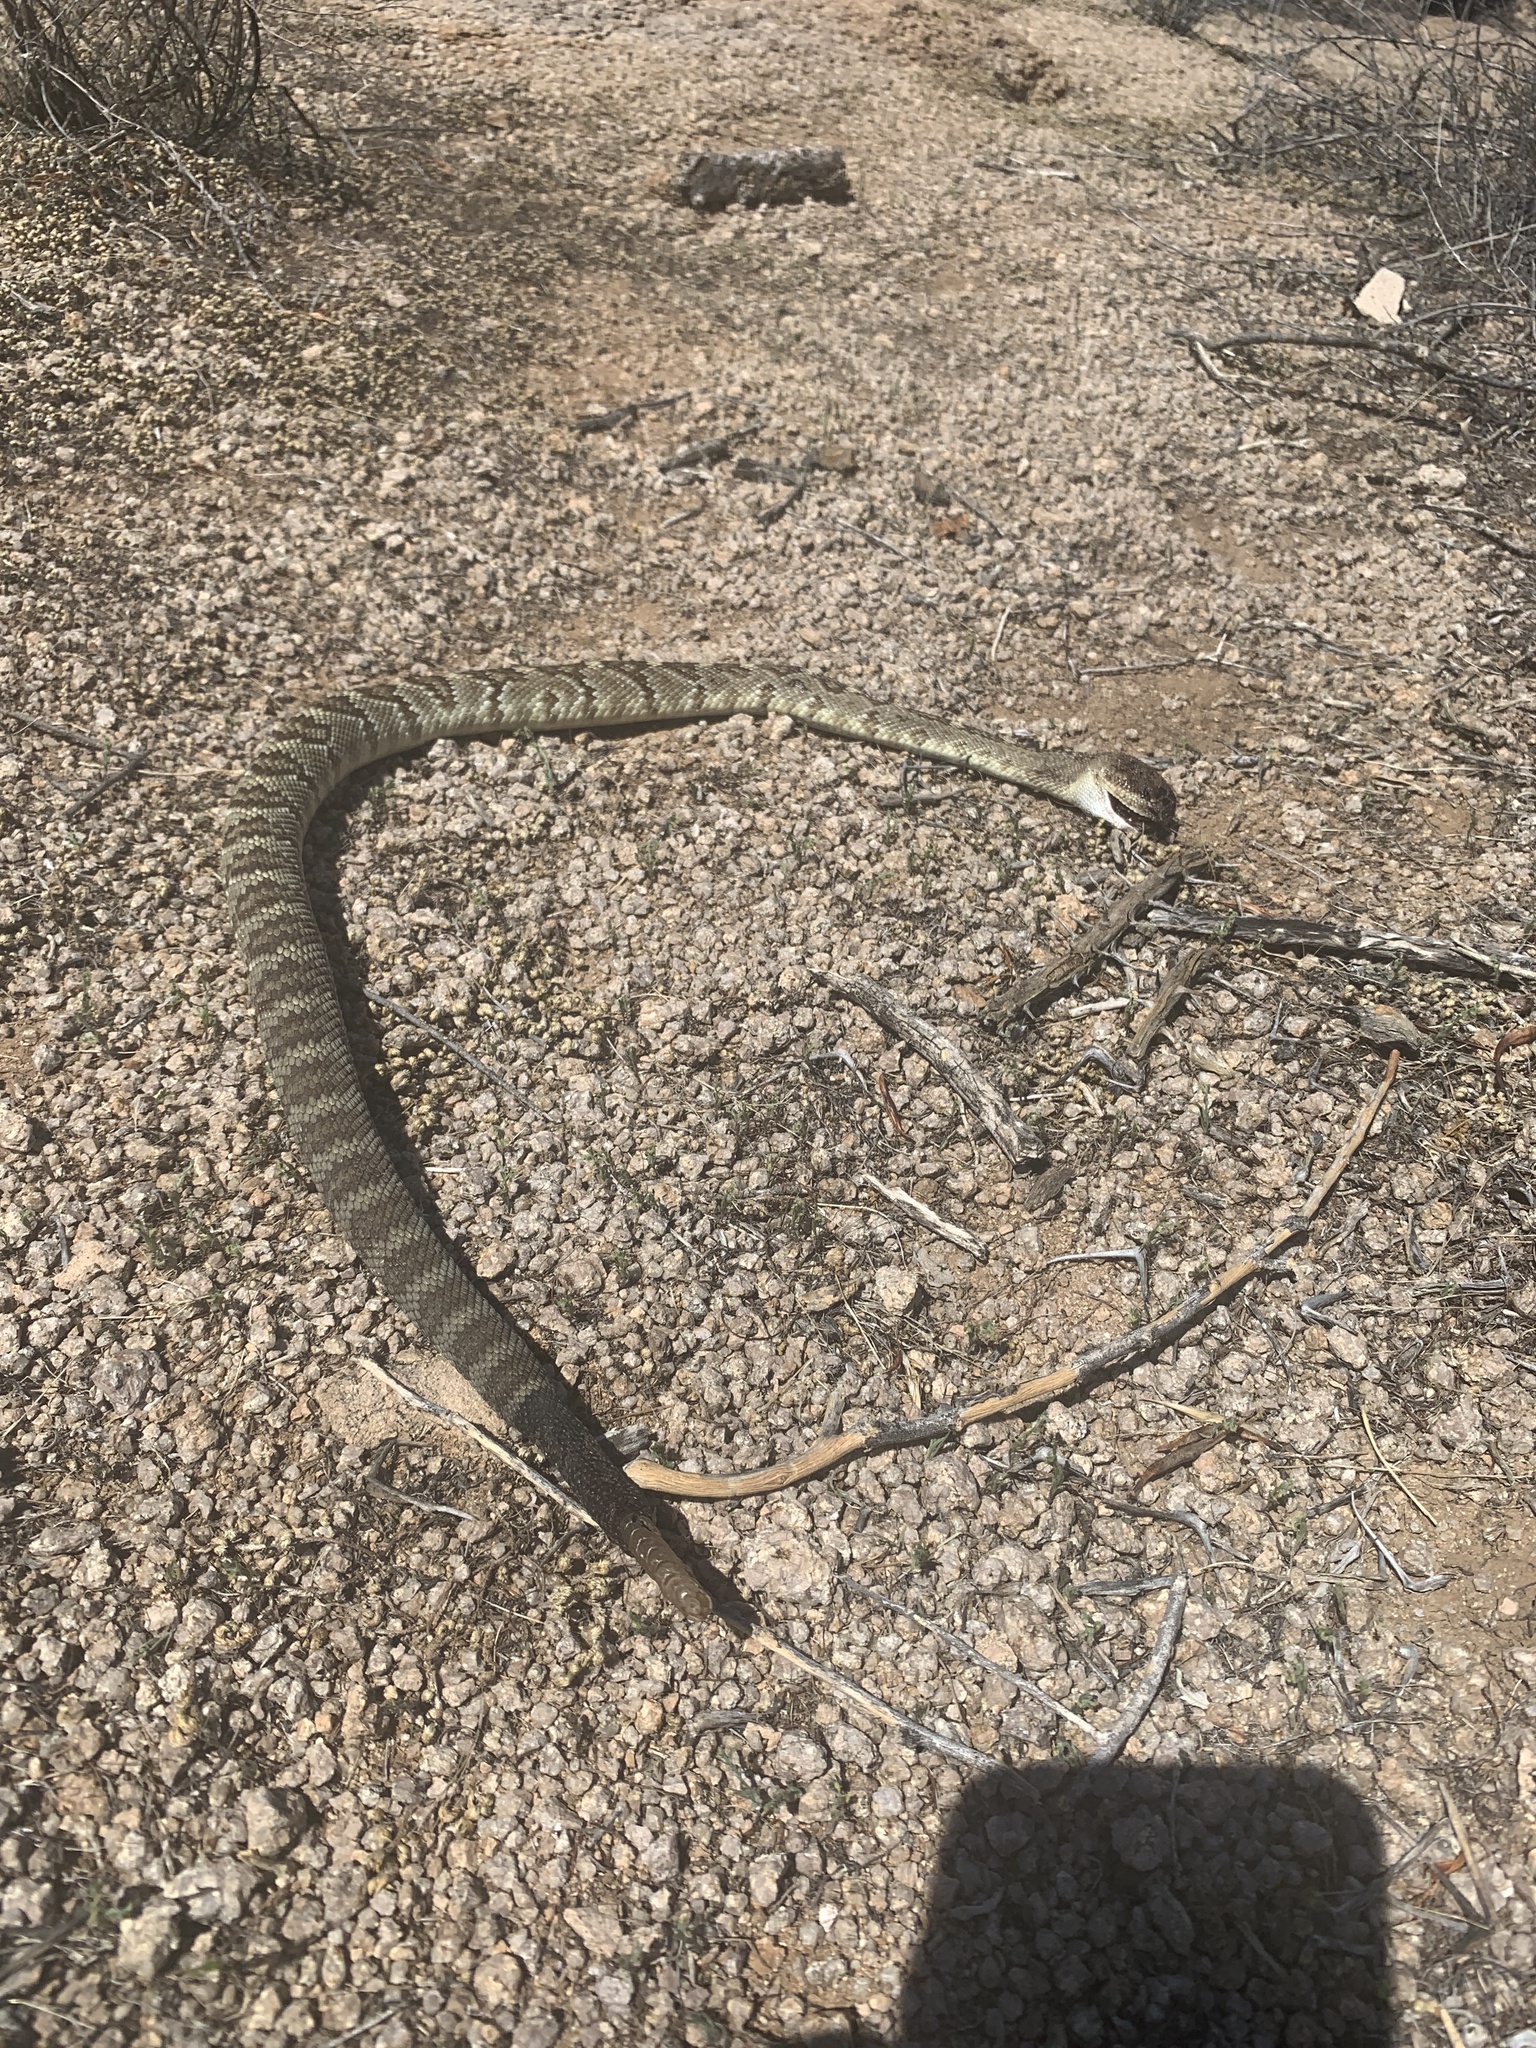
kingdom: Animalia
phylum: Chordata
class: Squamata
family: Viperidae
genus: Crotalus
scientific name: Crotalus molossus
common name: Black tailed rattlesnake
